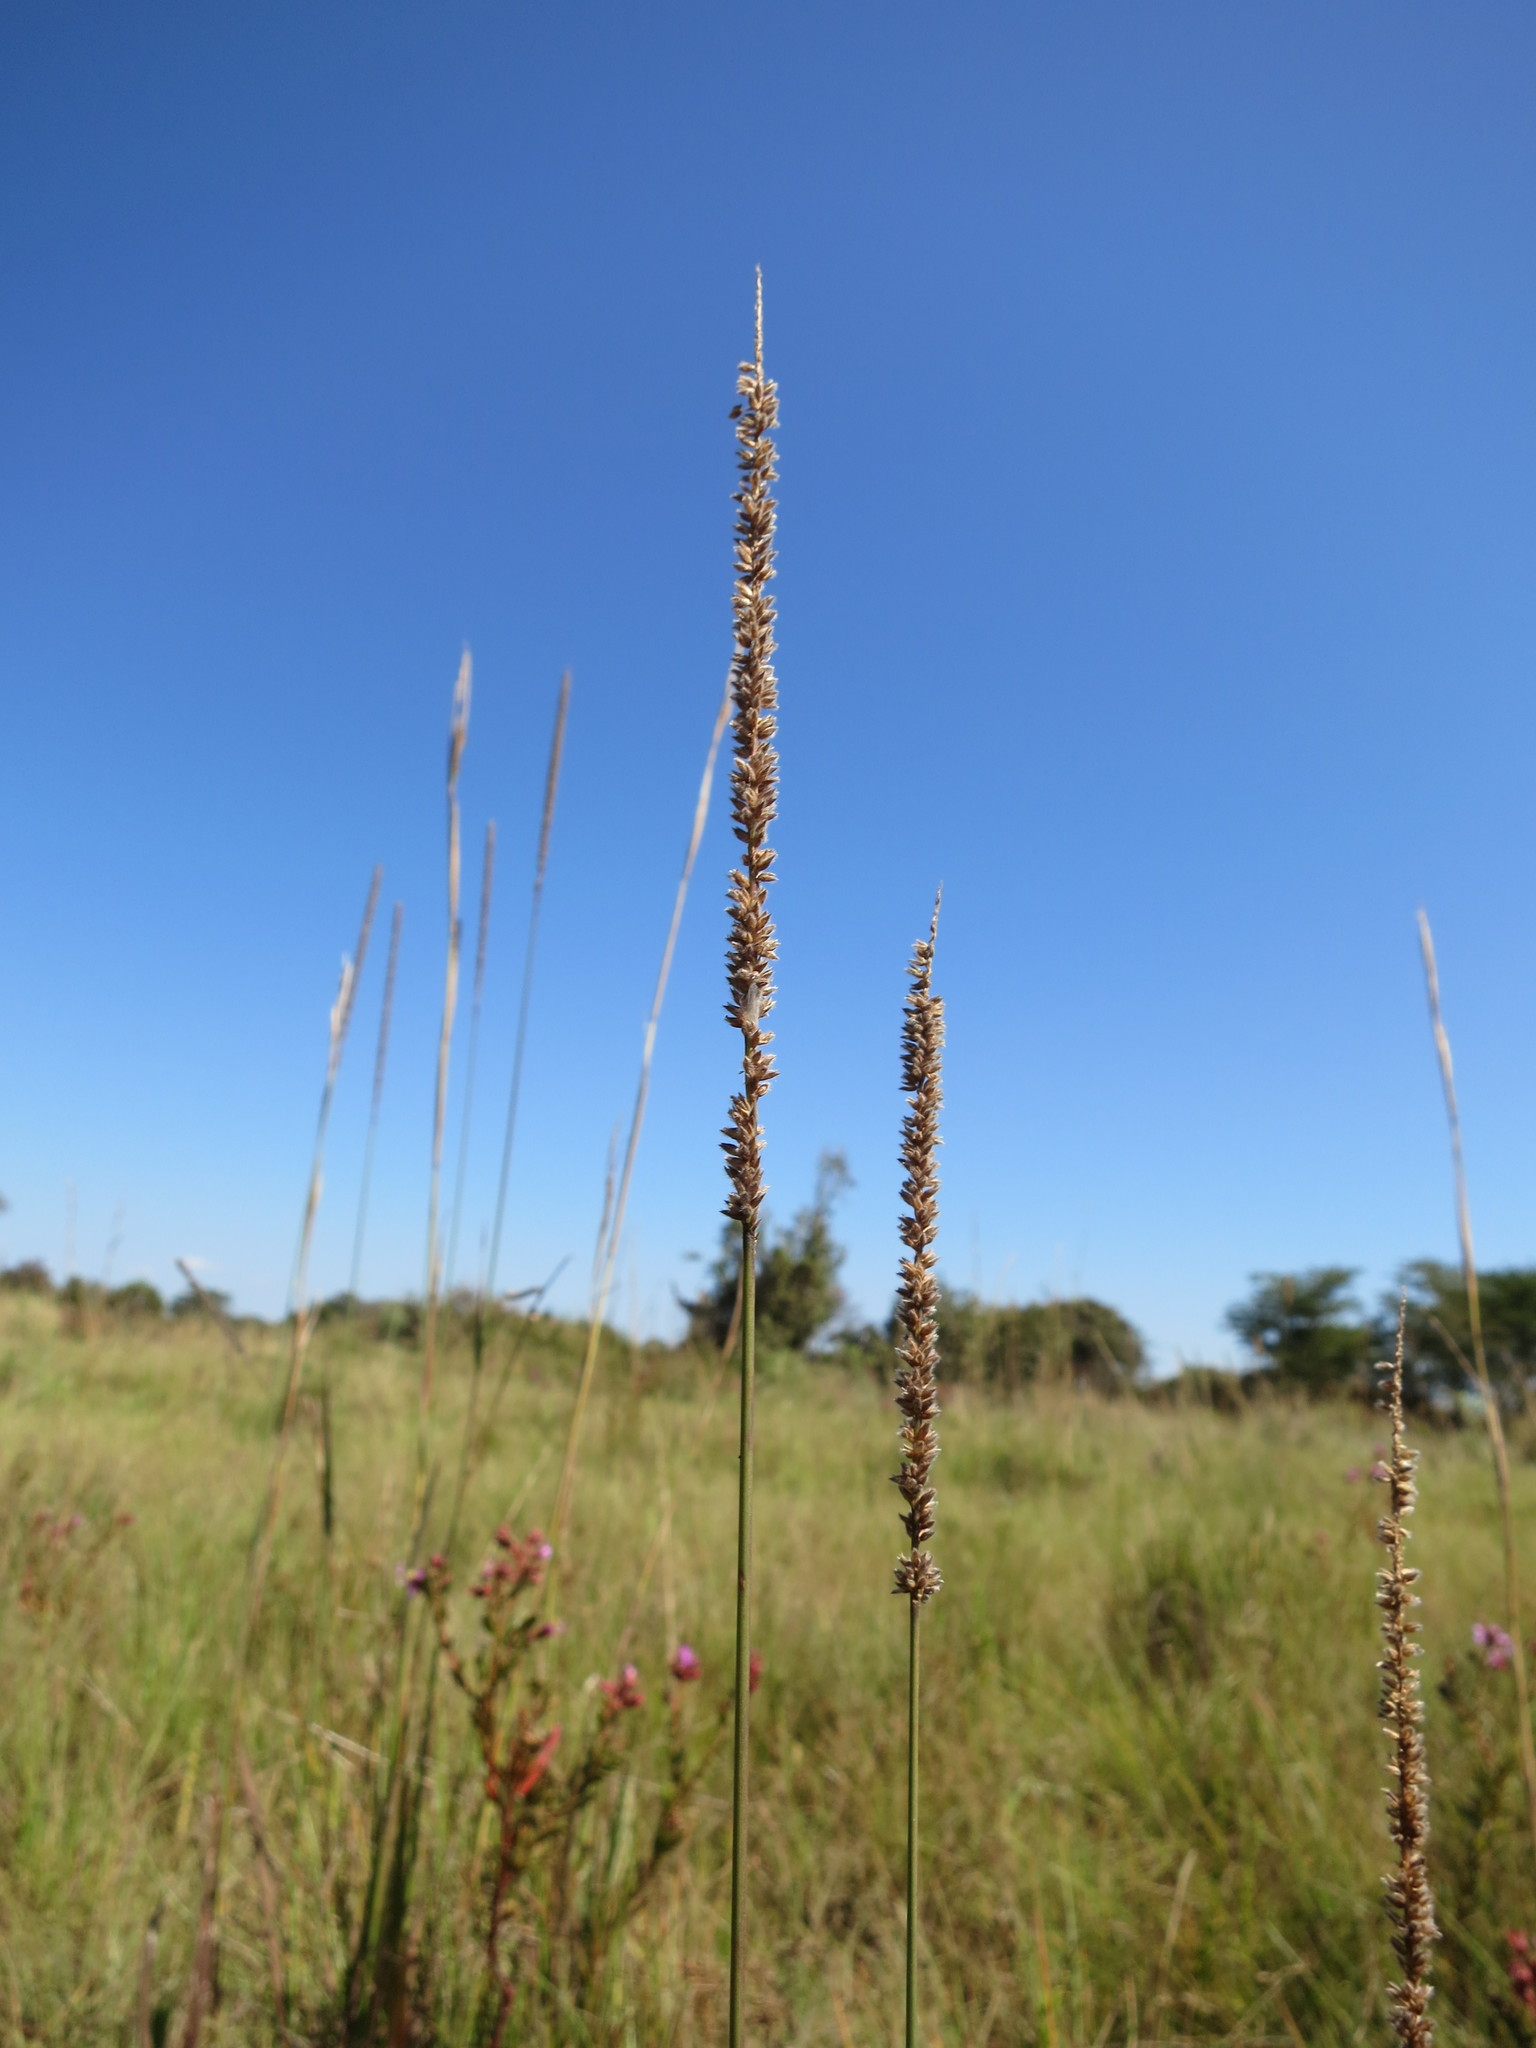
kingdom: Plantae
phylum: Tracheophyta
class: Liliopsida
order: Poales
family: Poaceae
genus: Sacciolepis
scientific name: Sacciolepis transbarbata
